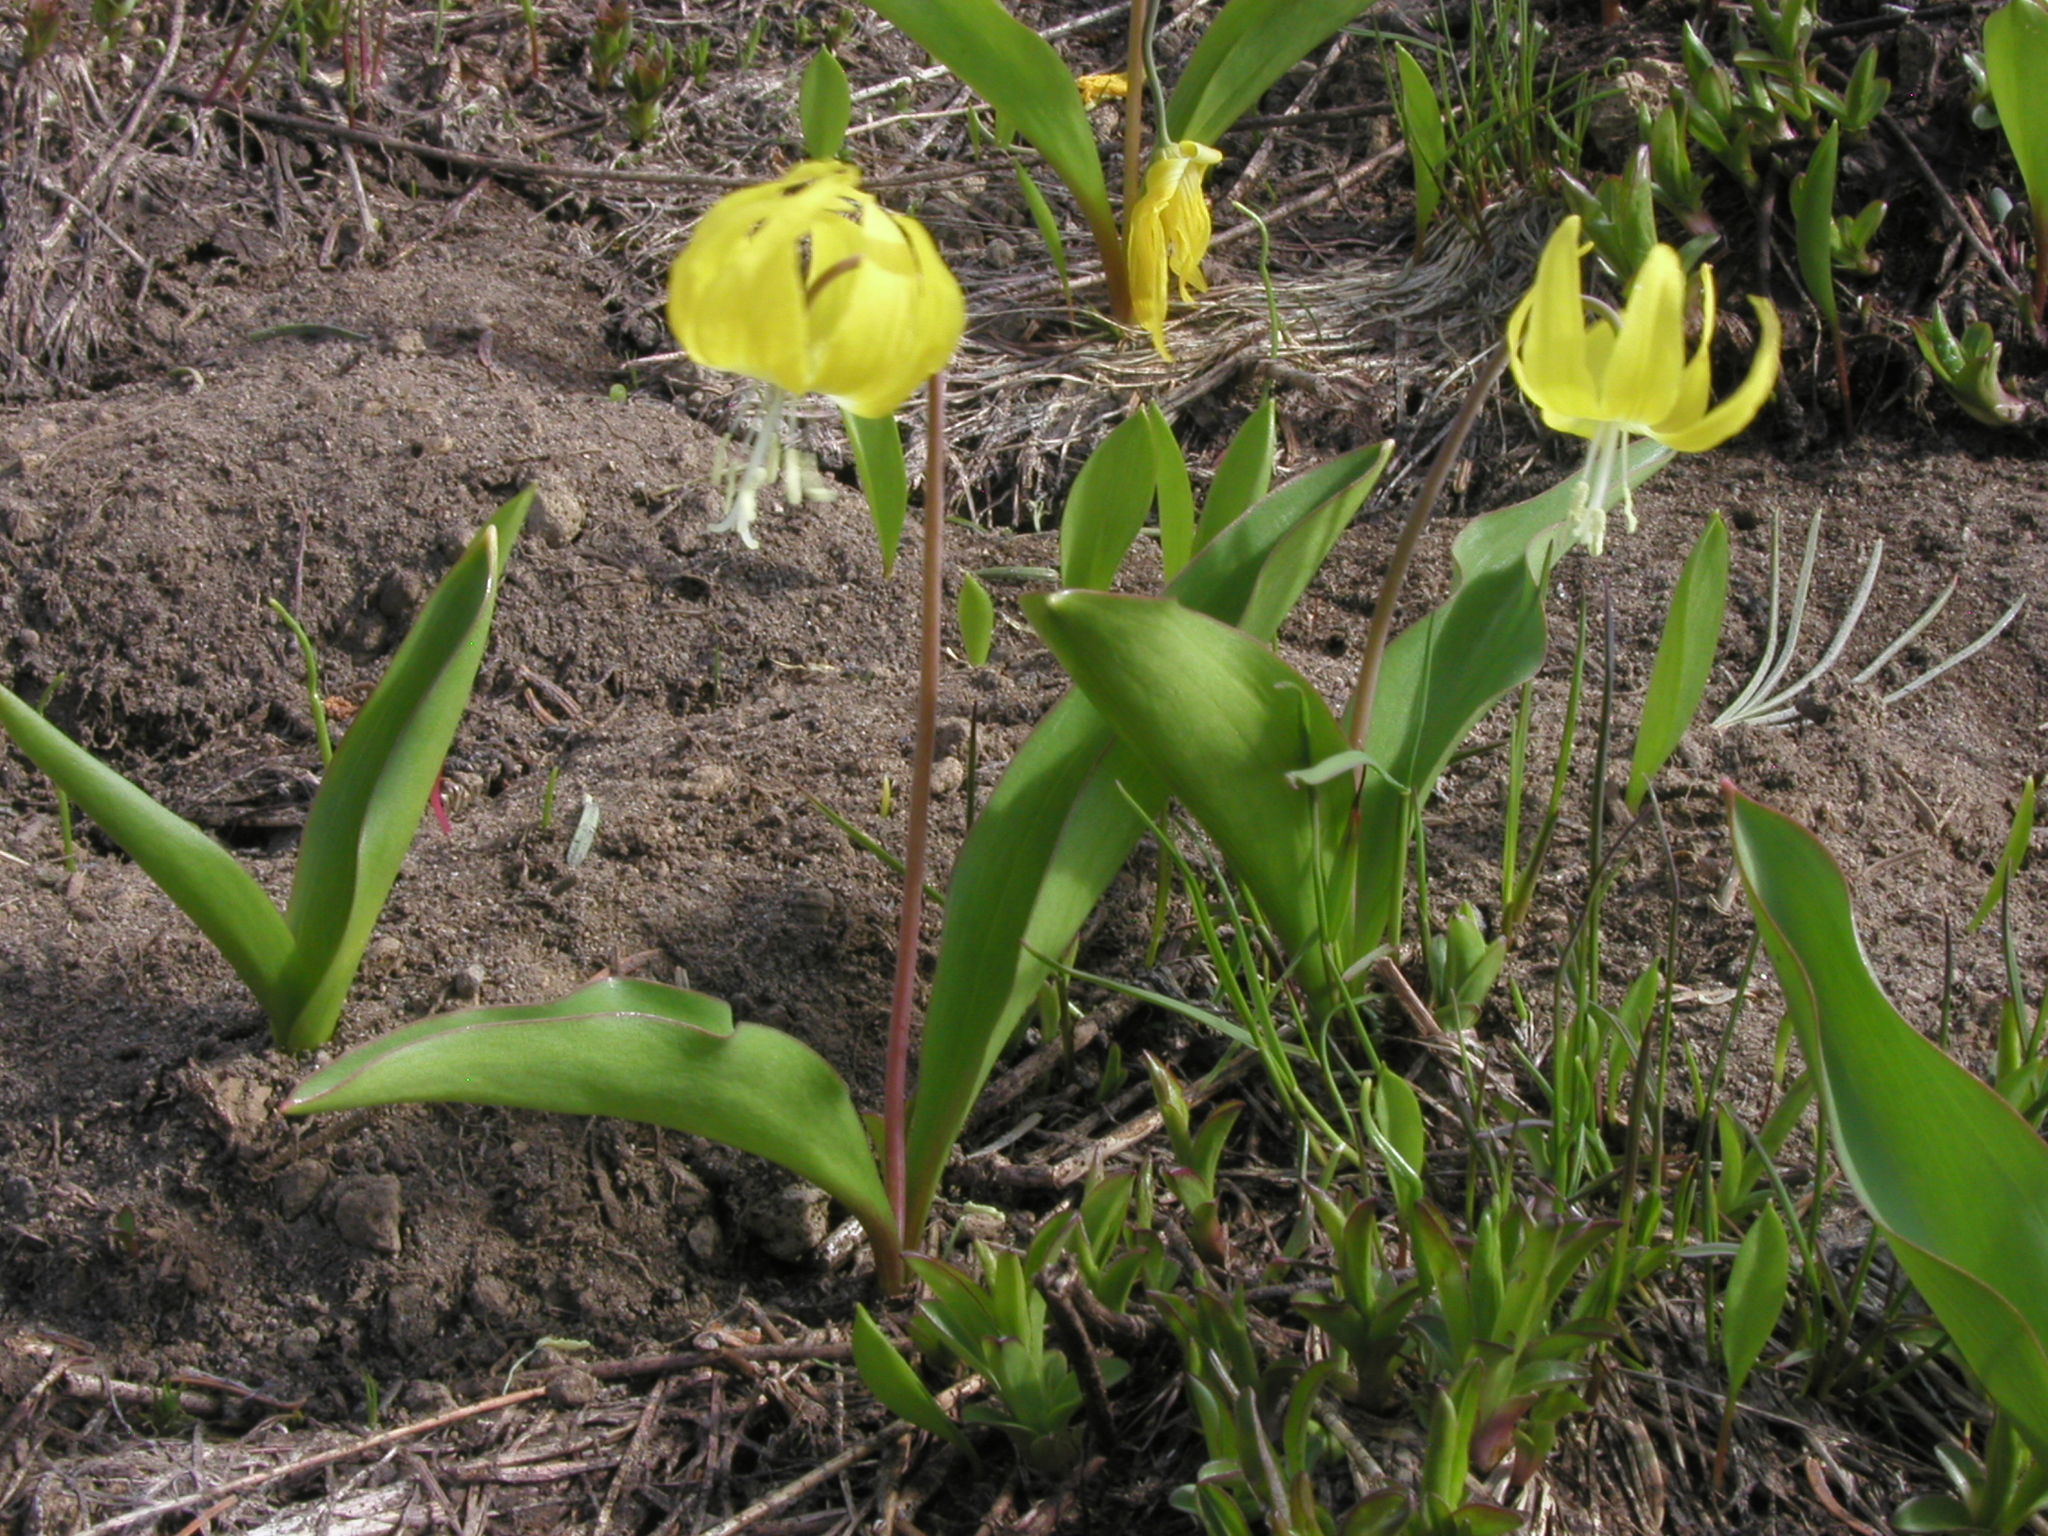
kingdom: Plantae
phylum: Tracheophyta
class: Liliopsida
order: Liliales
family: Liliaceae
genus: Erythronium
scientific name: Erythronium grandiflorum
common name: Avalanche-lily
